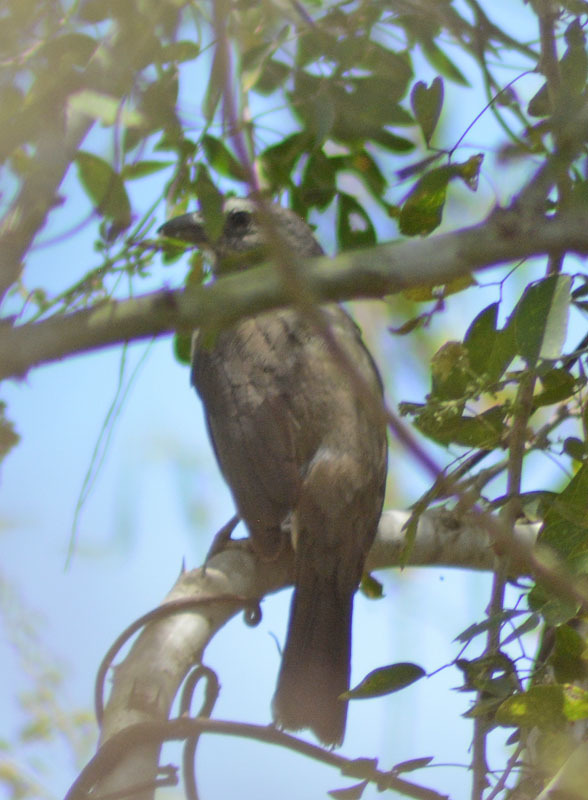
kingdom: Animalia
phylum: Chordata
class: Aves
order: Passeriformes
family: Thraupidae
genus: Saltator
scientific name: Saltator grandis
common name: Cinnamon-bellied saltator
